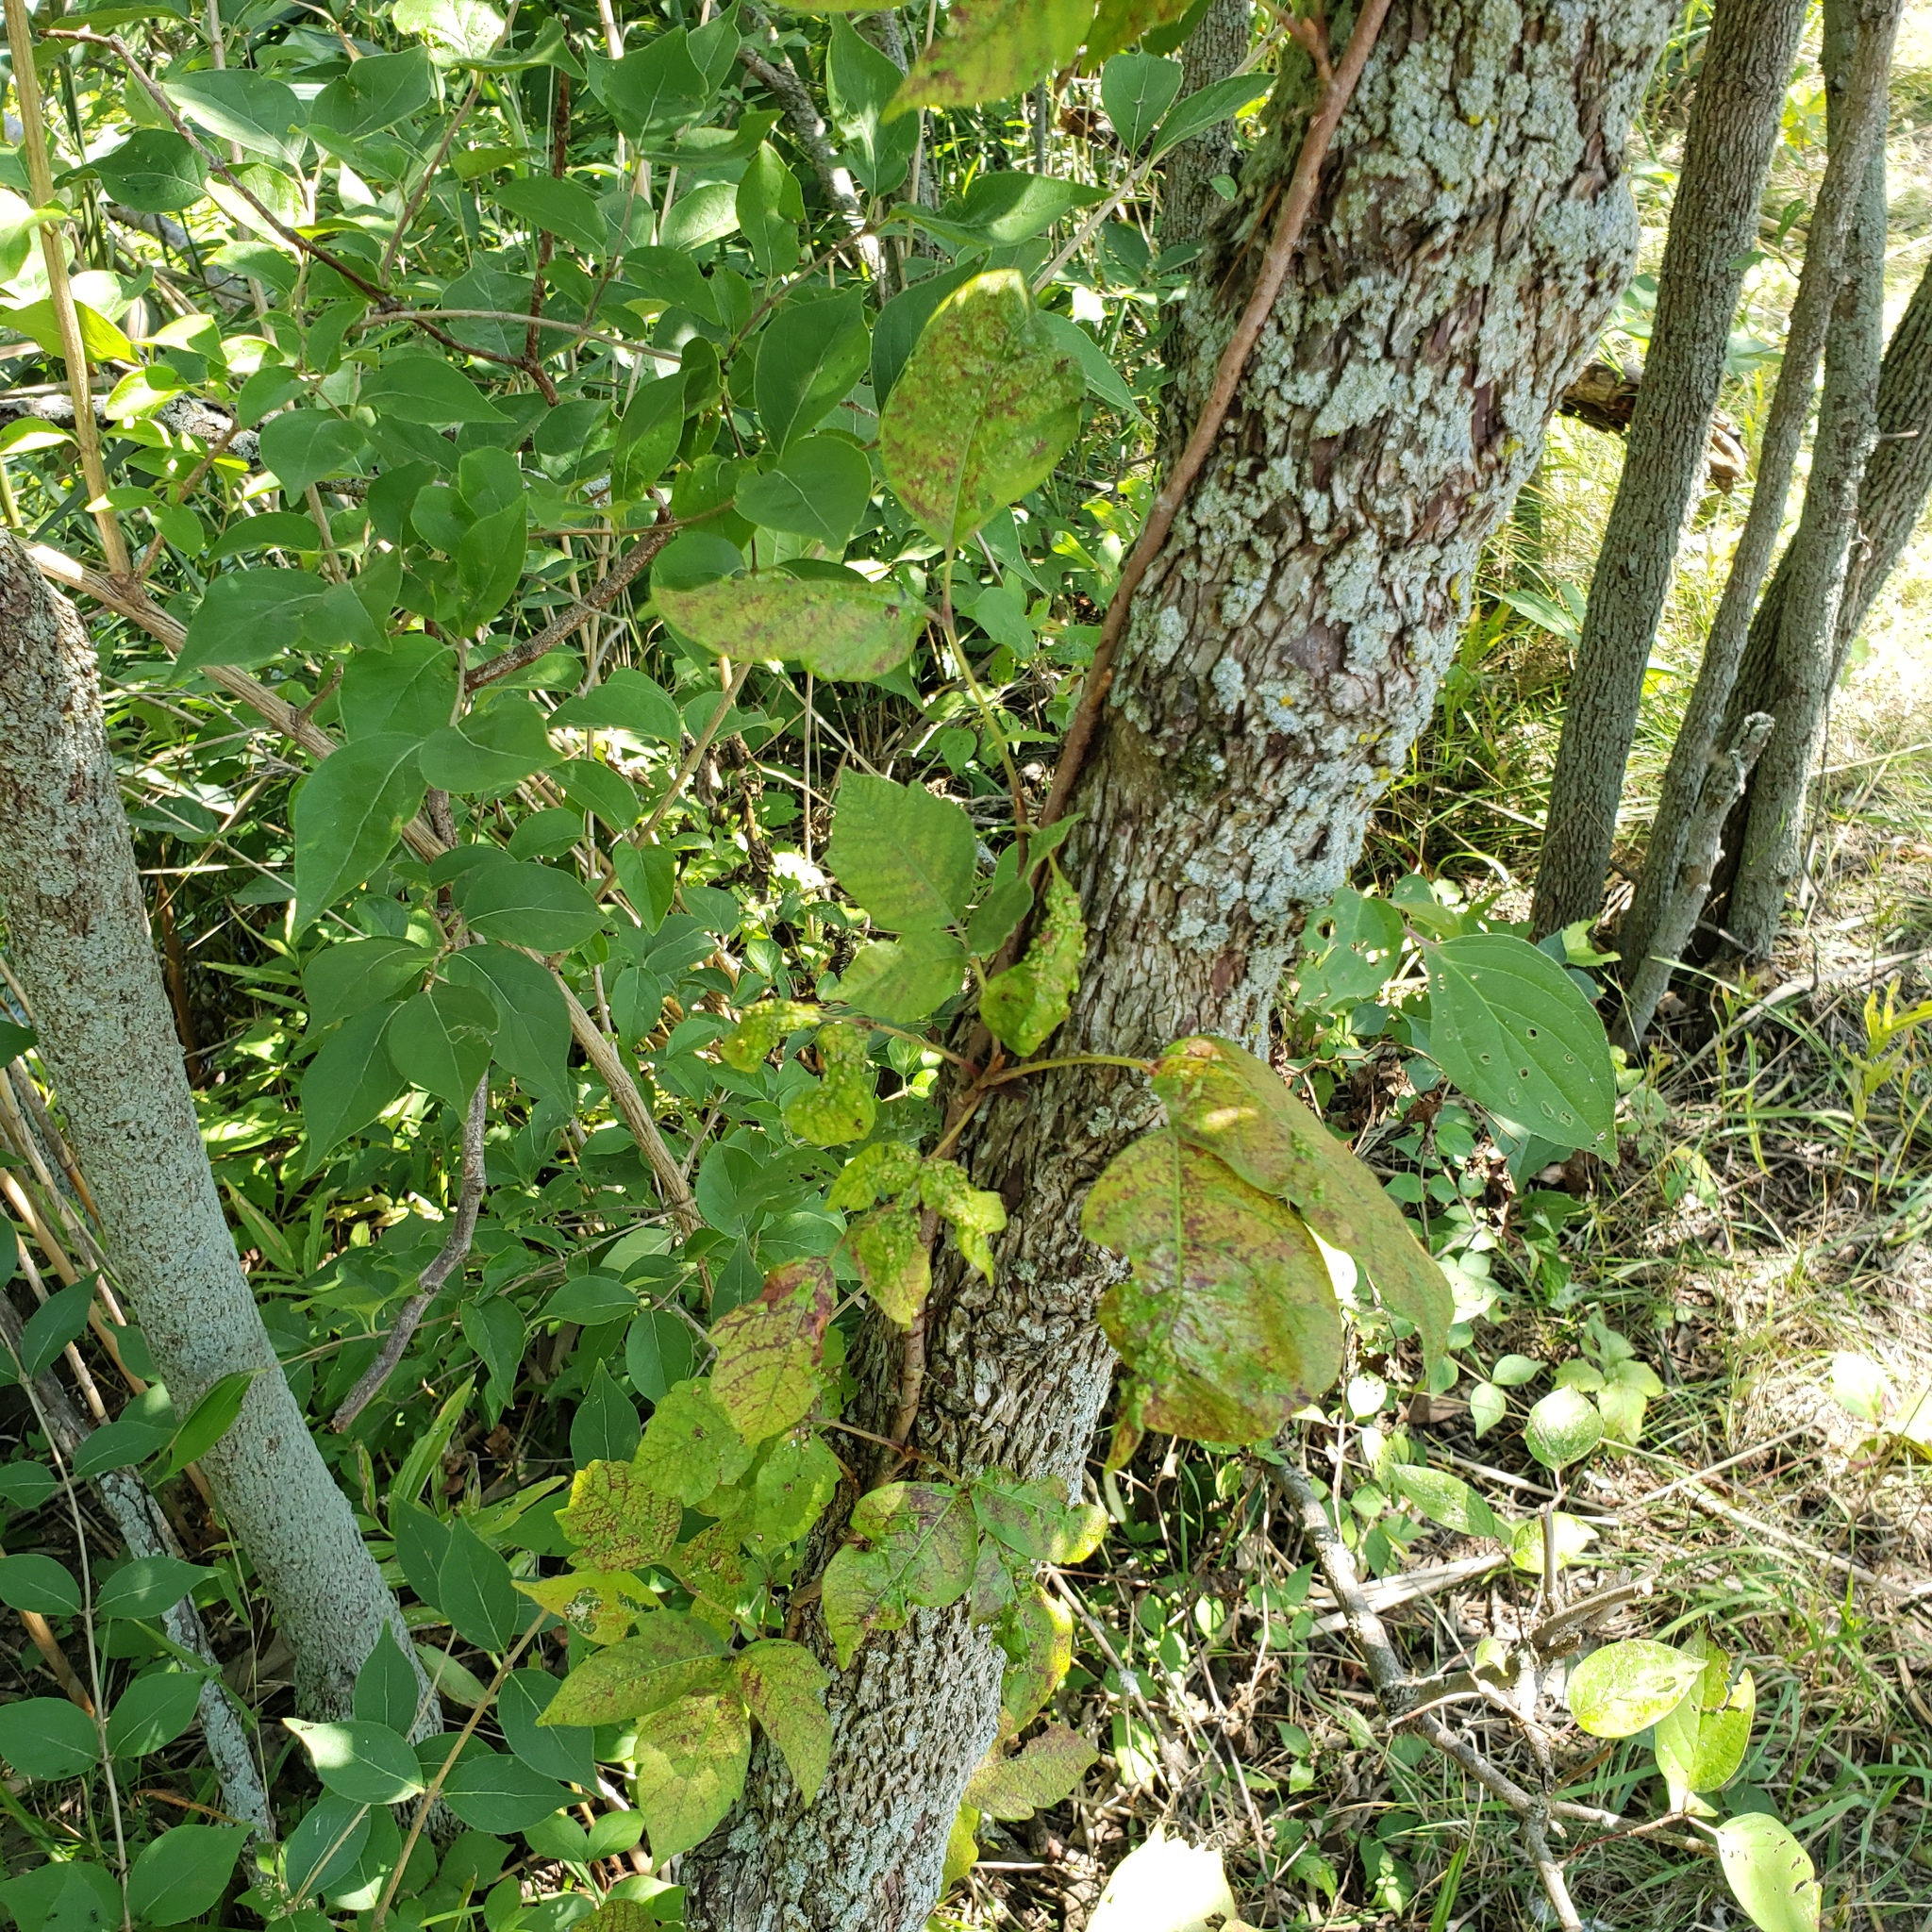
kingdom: Plantae
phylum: Tracheophyta
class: Magnoliopsida
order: Sapindales
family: Anacardiaceae
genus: Toxicodendron
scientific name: Toxicodendron radicans
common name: Poison ivy
